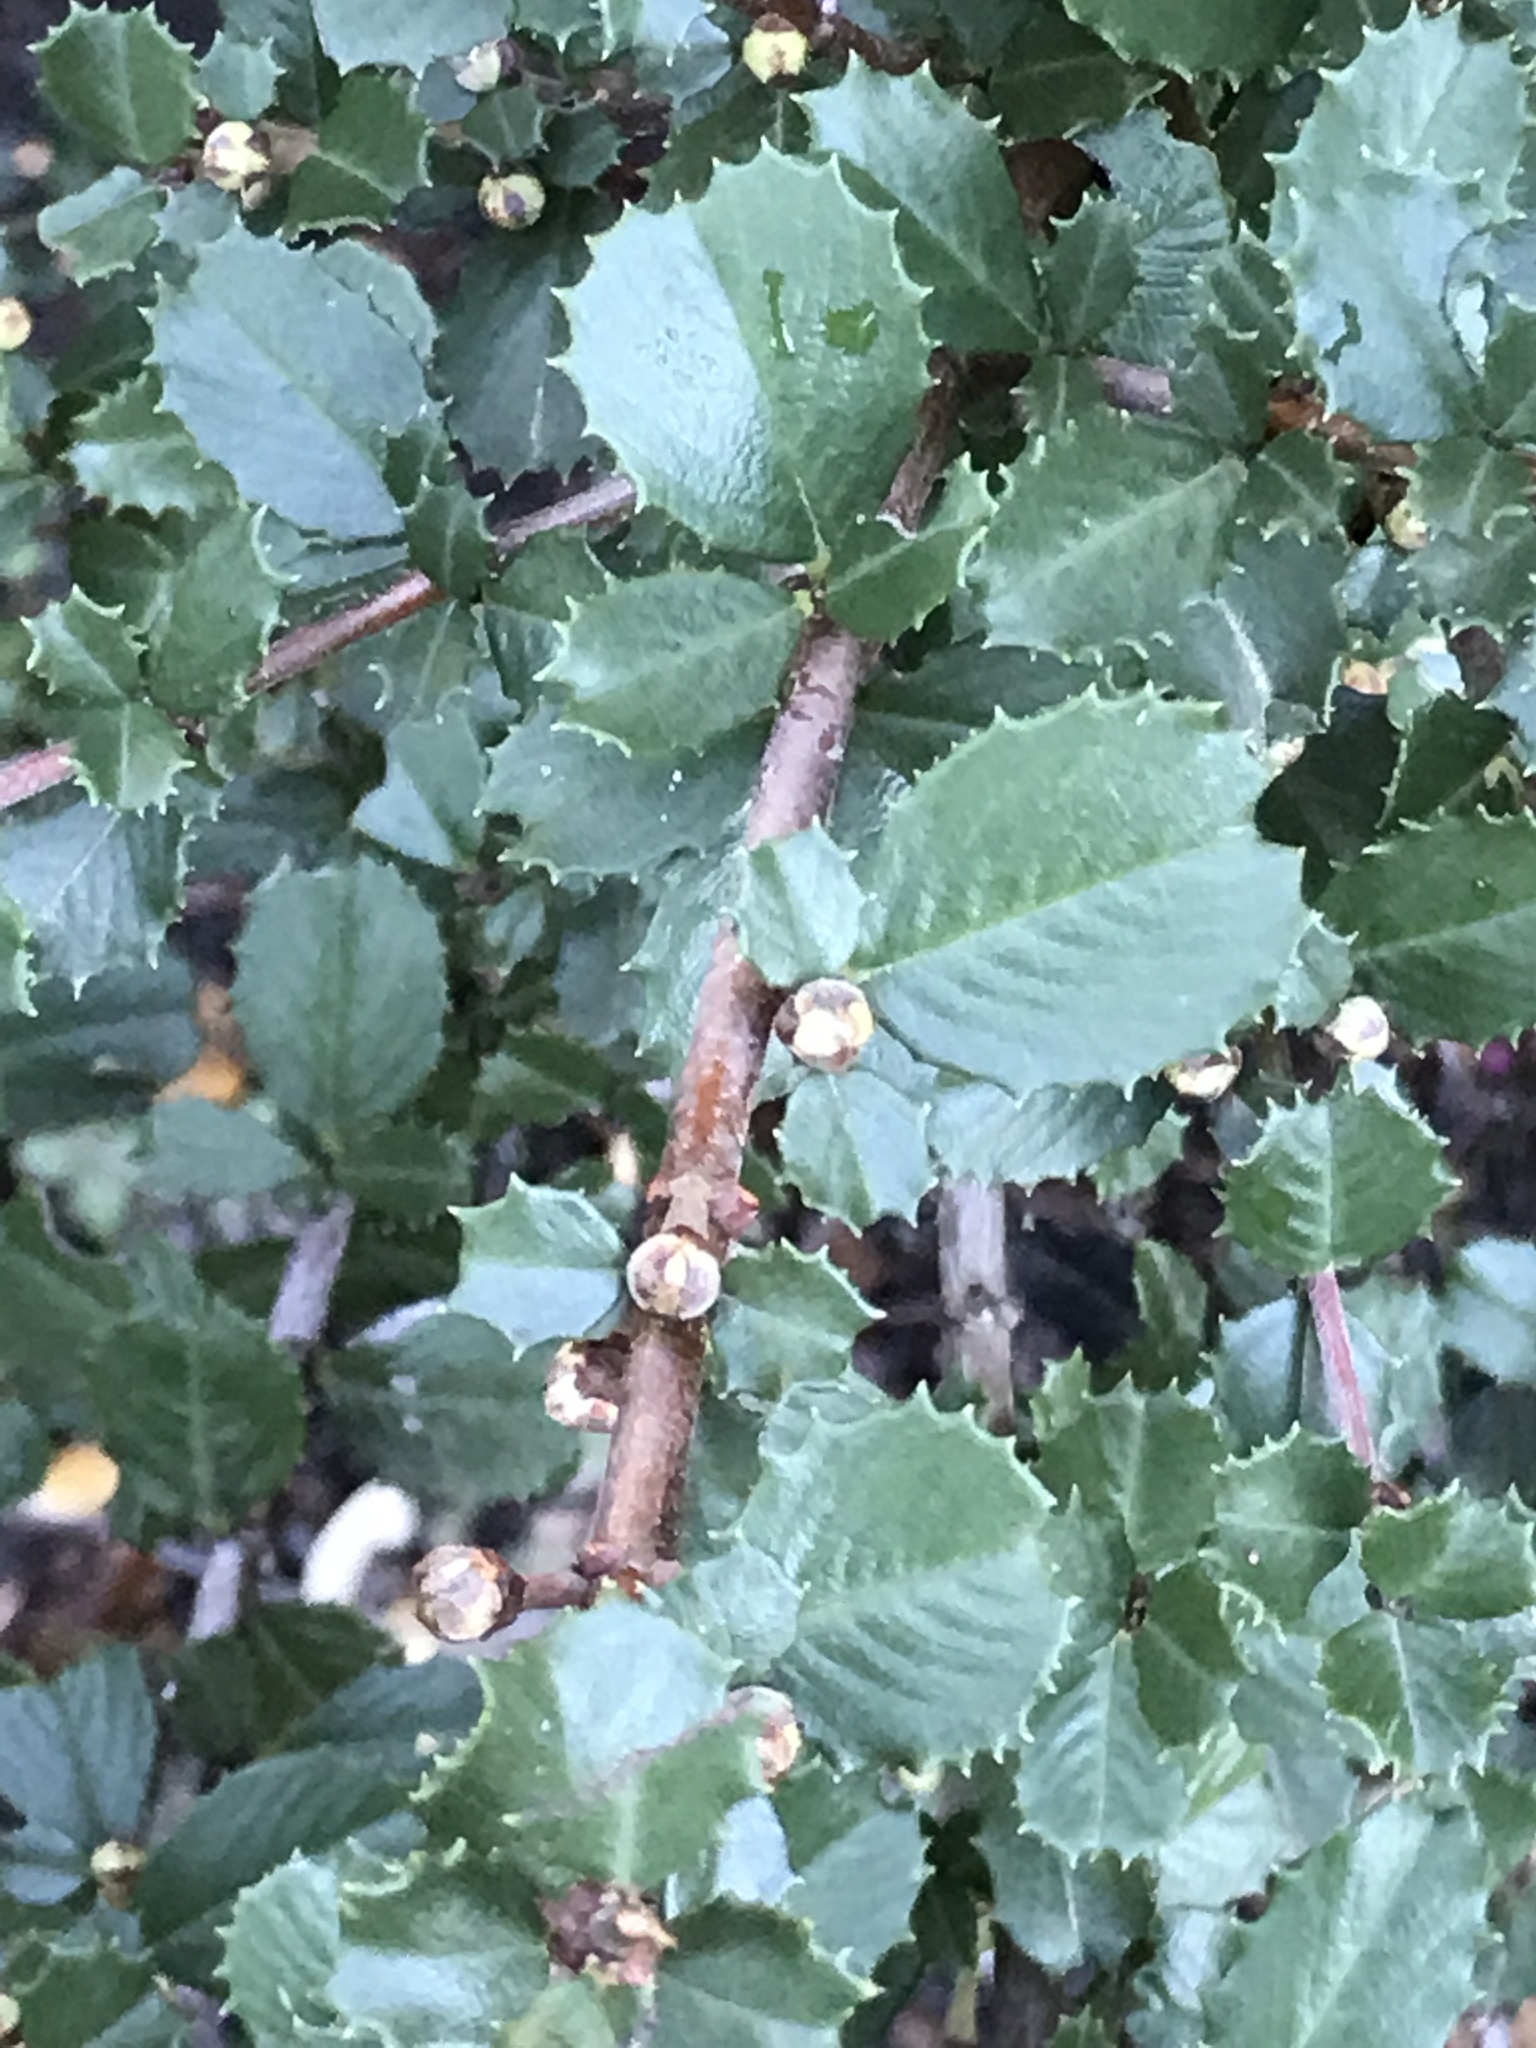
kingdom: Plantae
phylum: Tracheophyta
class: Magnoliopsida
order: Rosales
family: Rhamnaceae
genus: Ceanothus
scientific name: Ceanothus gloriosus
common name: Point reyes ceanothus
